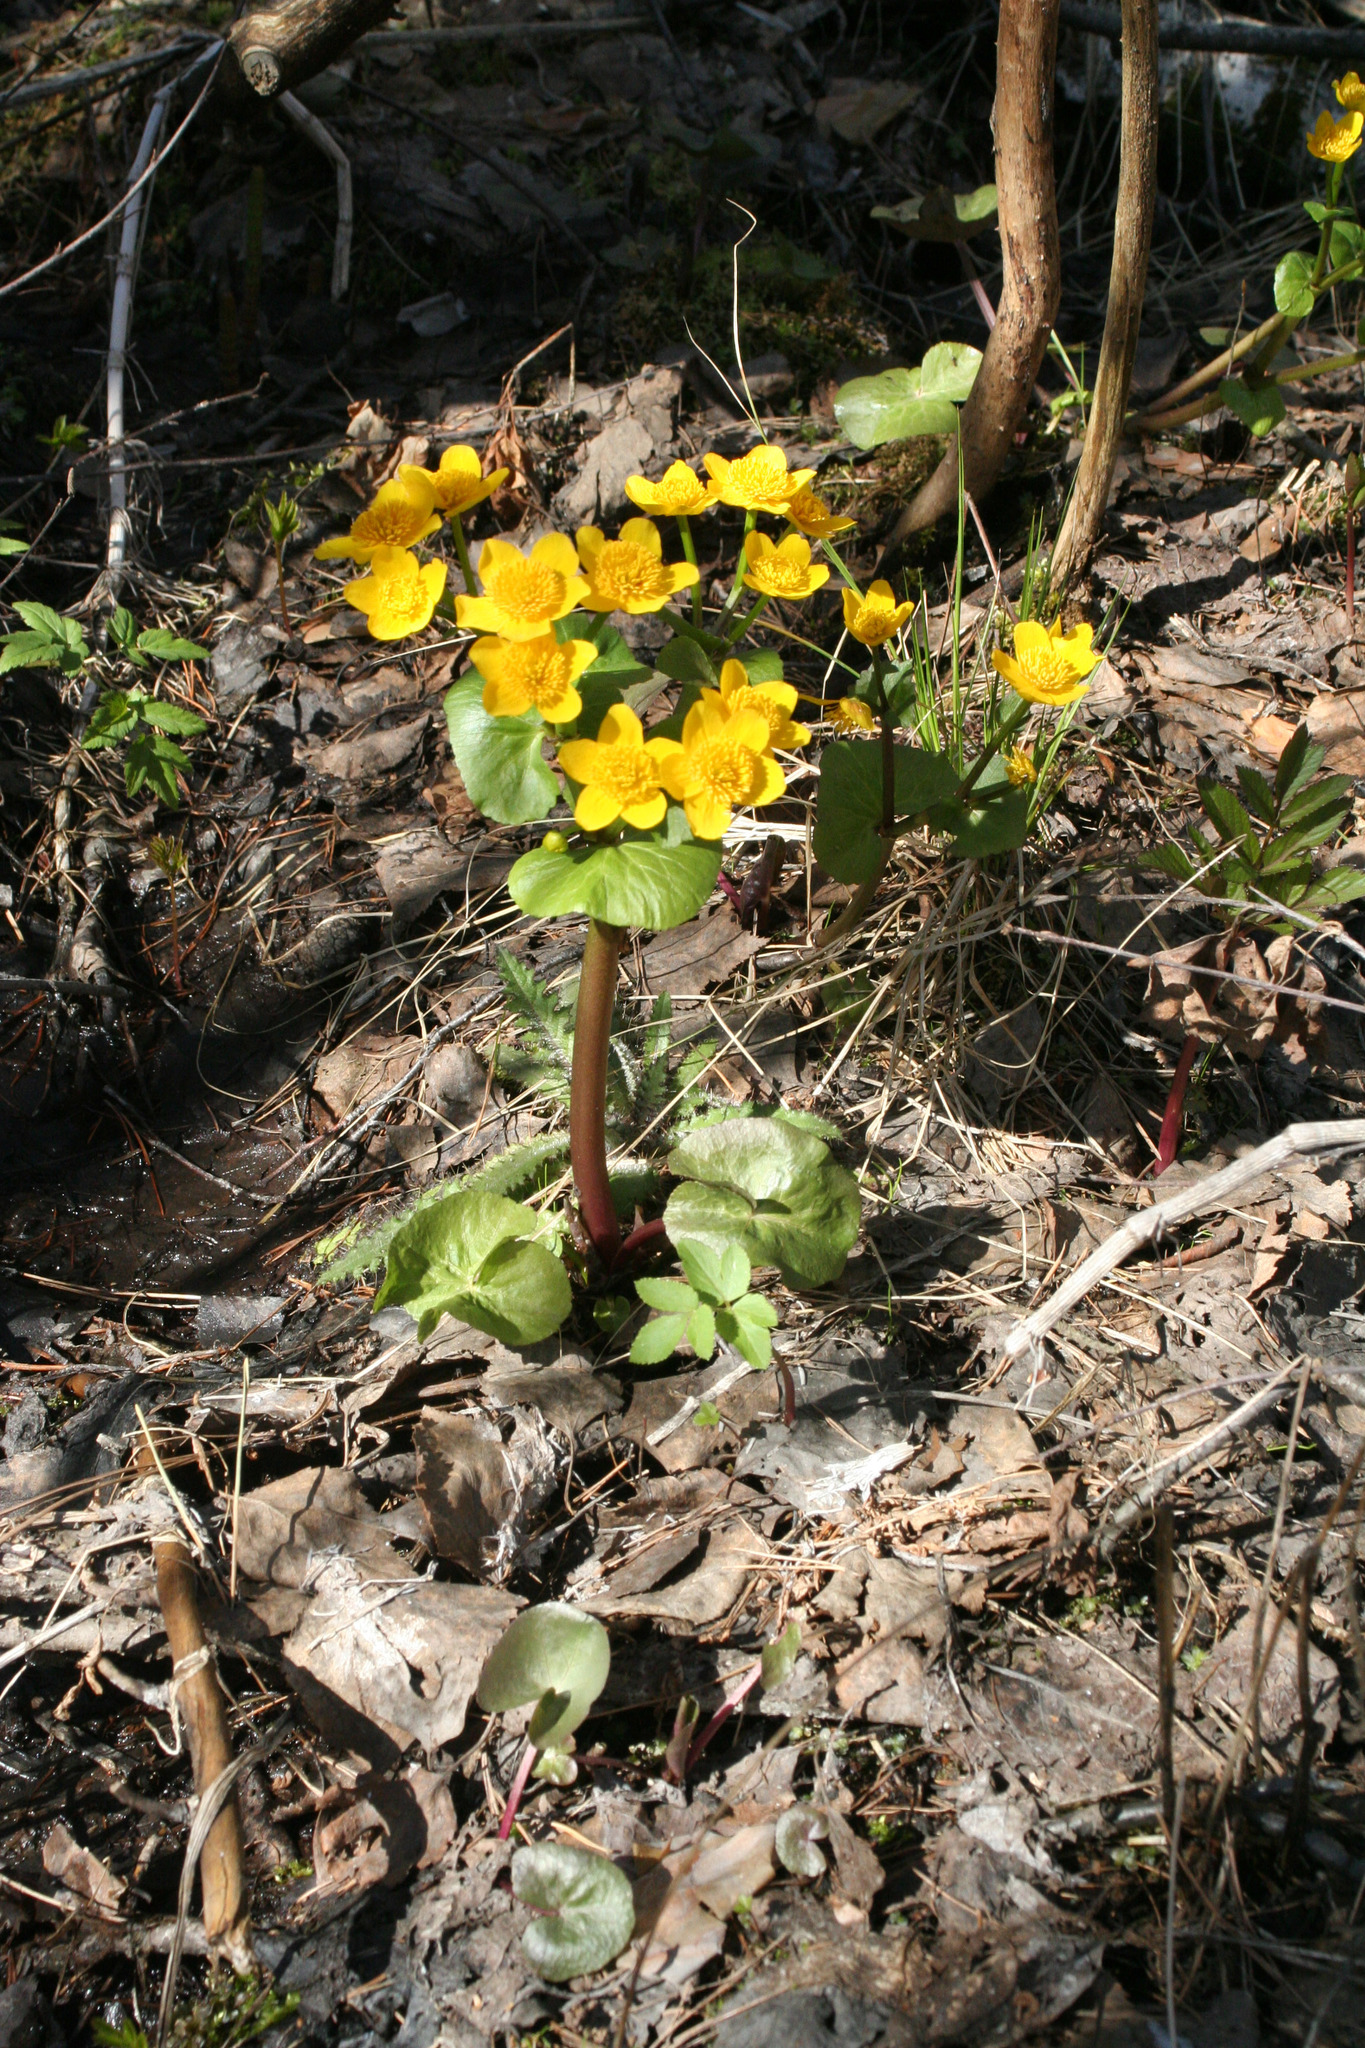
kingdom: Plantae
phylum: Tracheophyta
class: Magnoliopsida
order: Ranunculales
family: Ranunculaceae
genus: Caltha
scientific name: Caltha palustris
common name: Marsh marigold
